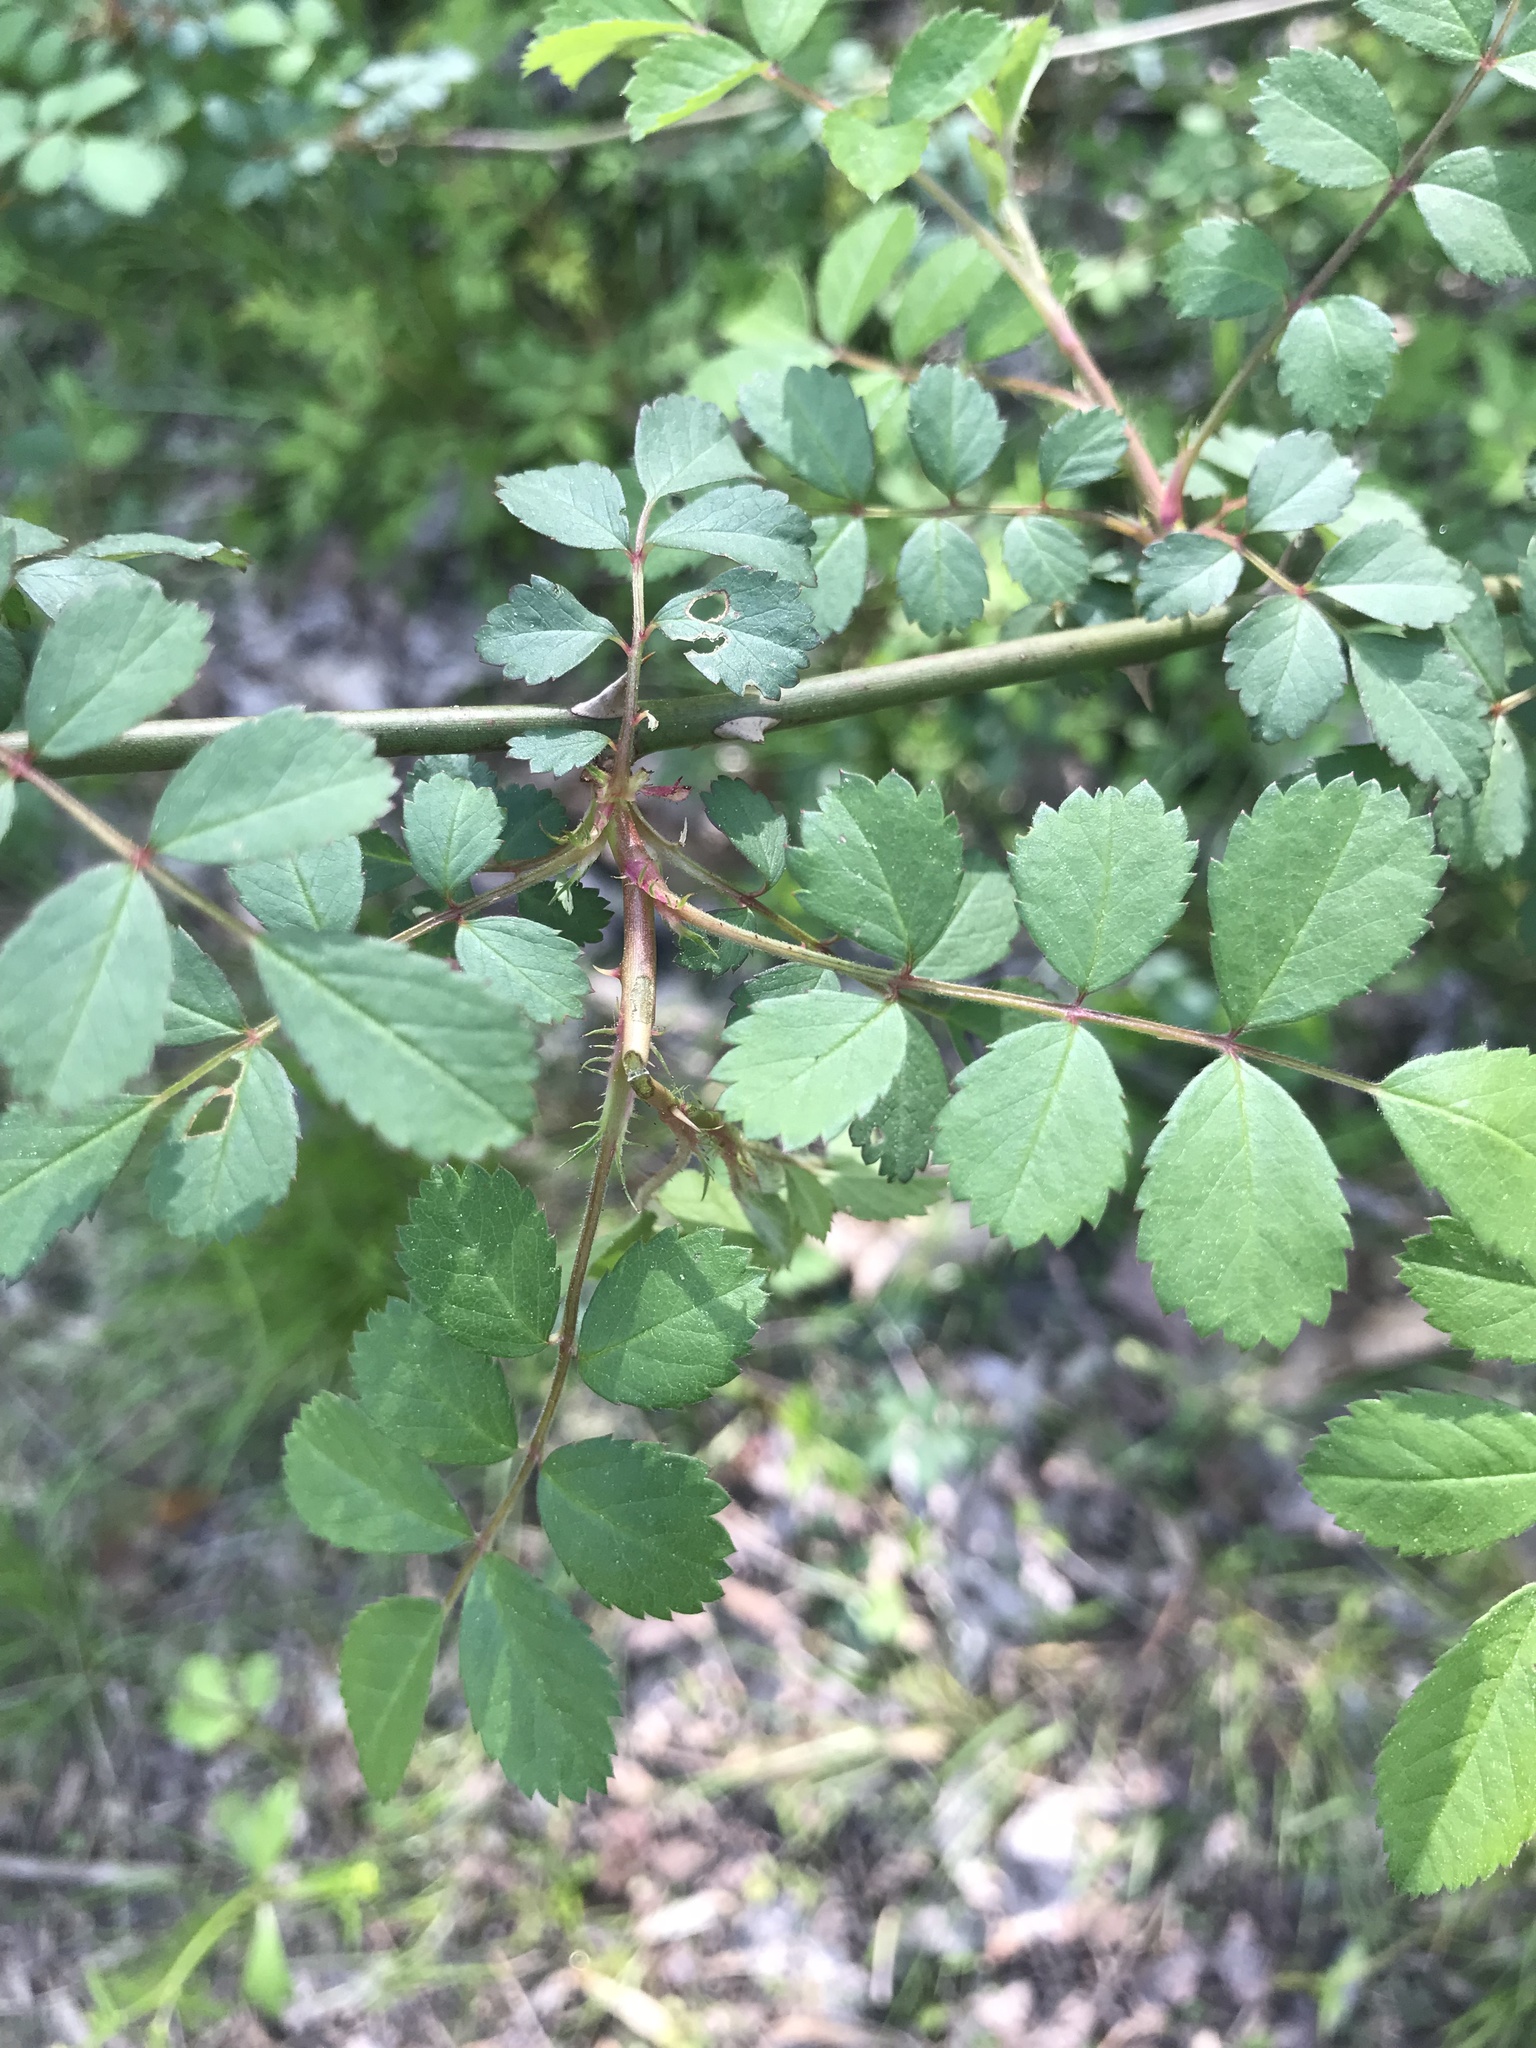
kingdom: Plantae
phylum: Tracheophyta
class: Magnoliopsida
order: Rosales
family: Rosaceae
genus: Rosa
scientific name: Rosa multiflora
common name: Multiflora rose
